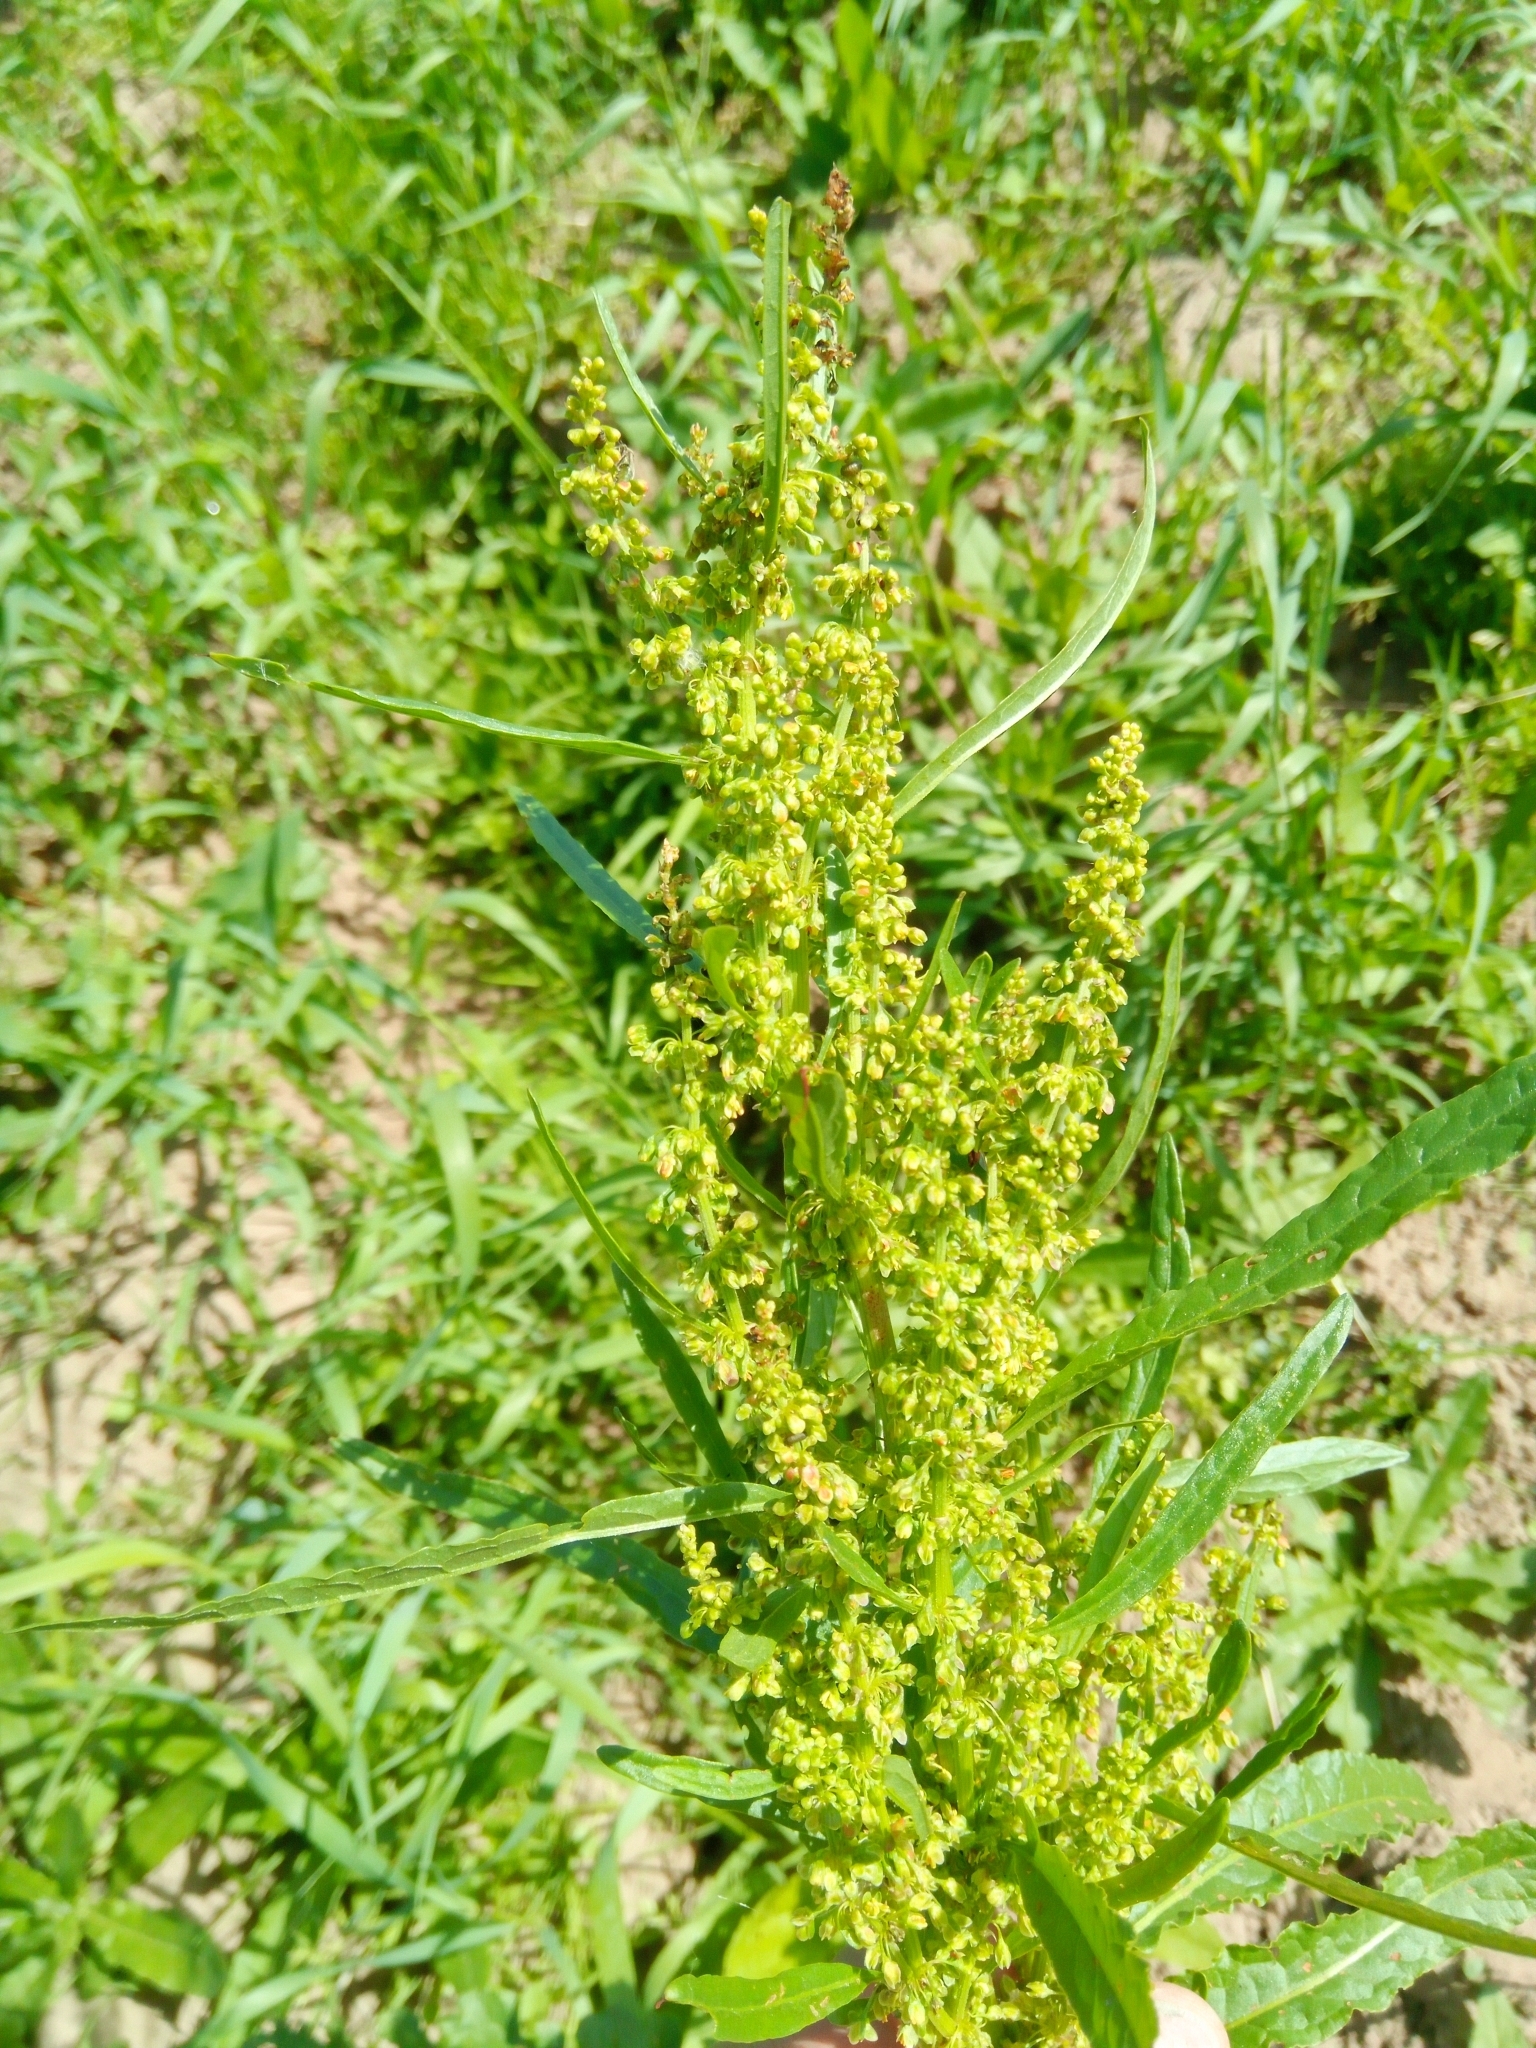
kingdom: Plantae
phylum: Tracheophyta
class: Magnoliopsida
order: Caryophyllales
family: Polygonaceae
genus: Rumex
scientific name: Rumex crispus
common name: Curled dock
